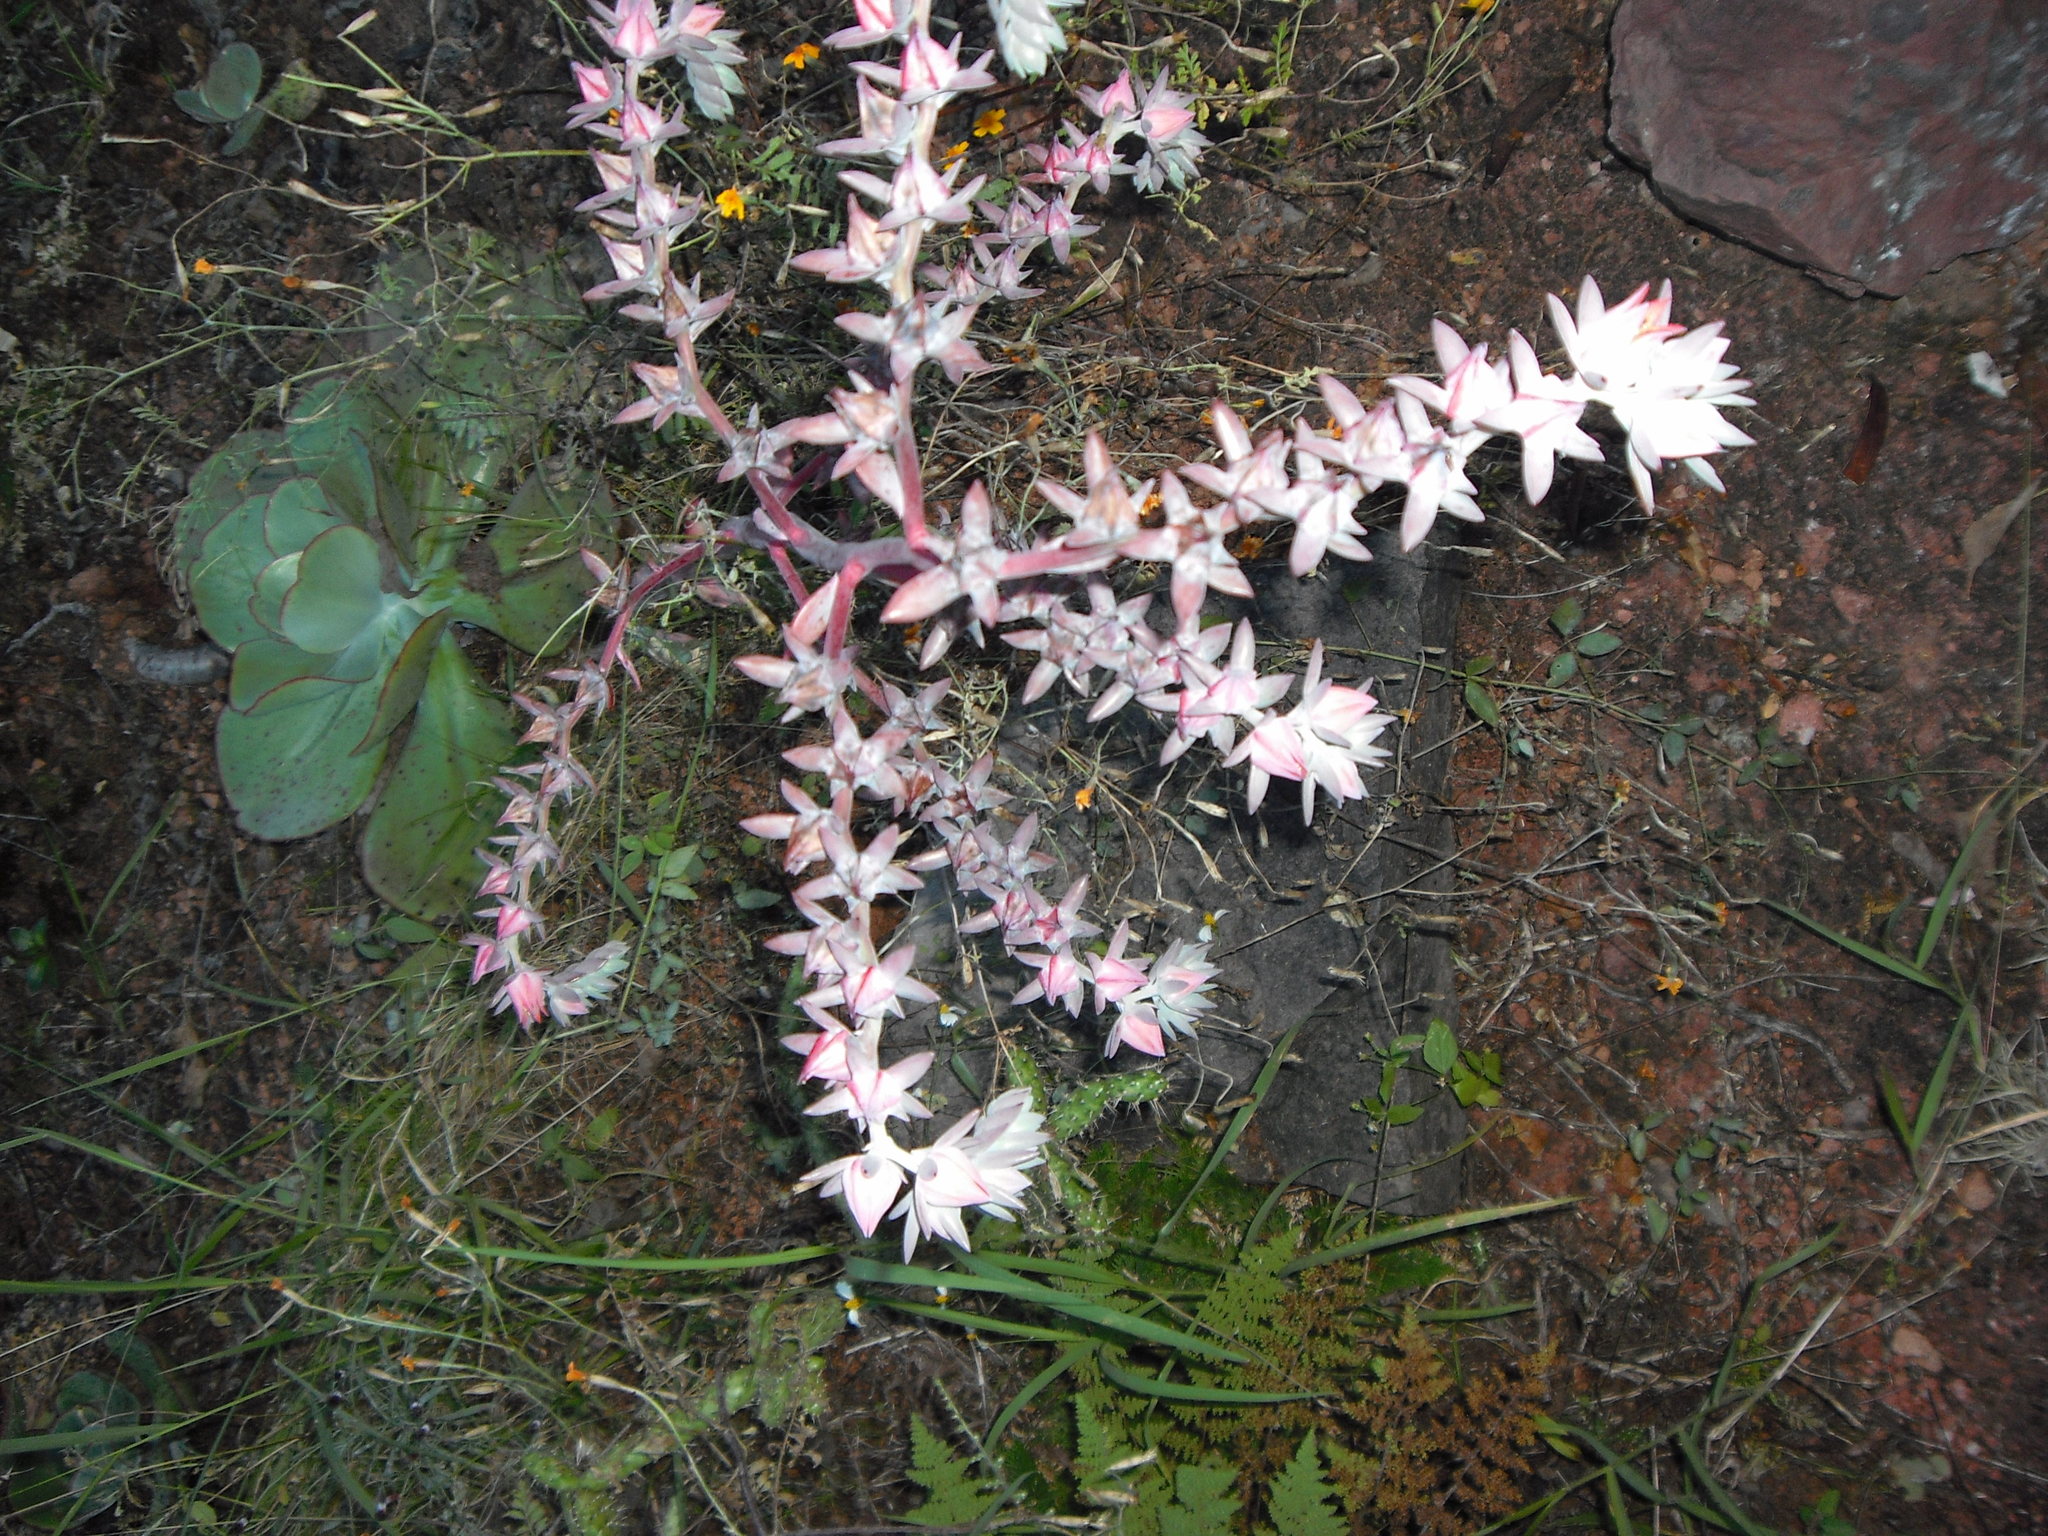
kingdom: Plantae
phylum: Tracheophyta
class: Magnoliopsida
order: Saxifragales
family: Crassulaceae
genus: Echeveria
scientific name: Echeveria gigantea
